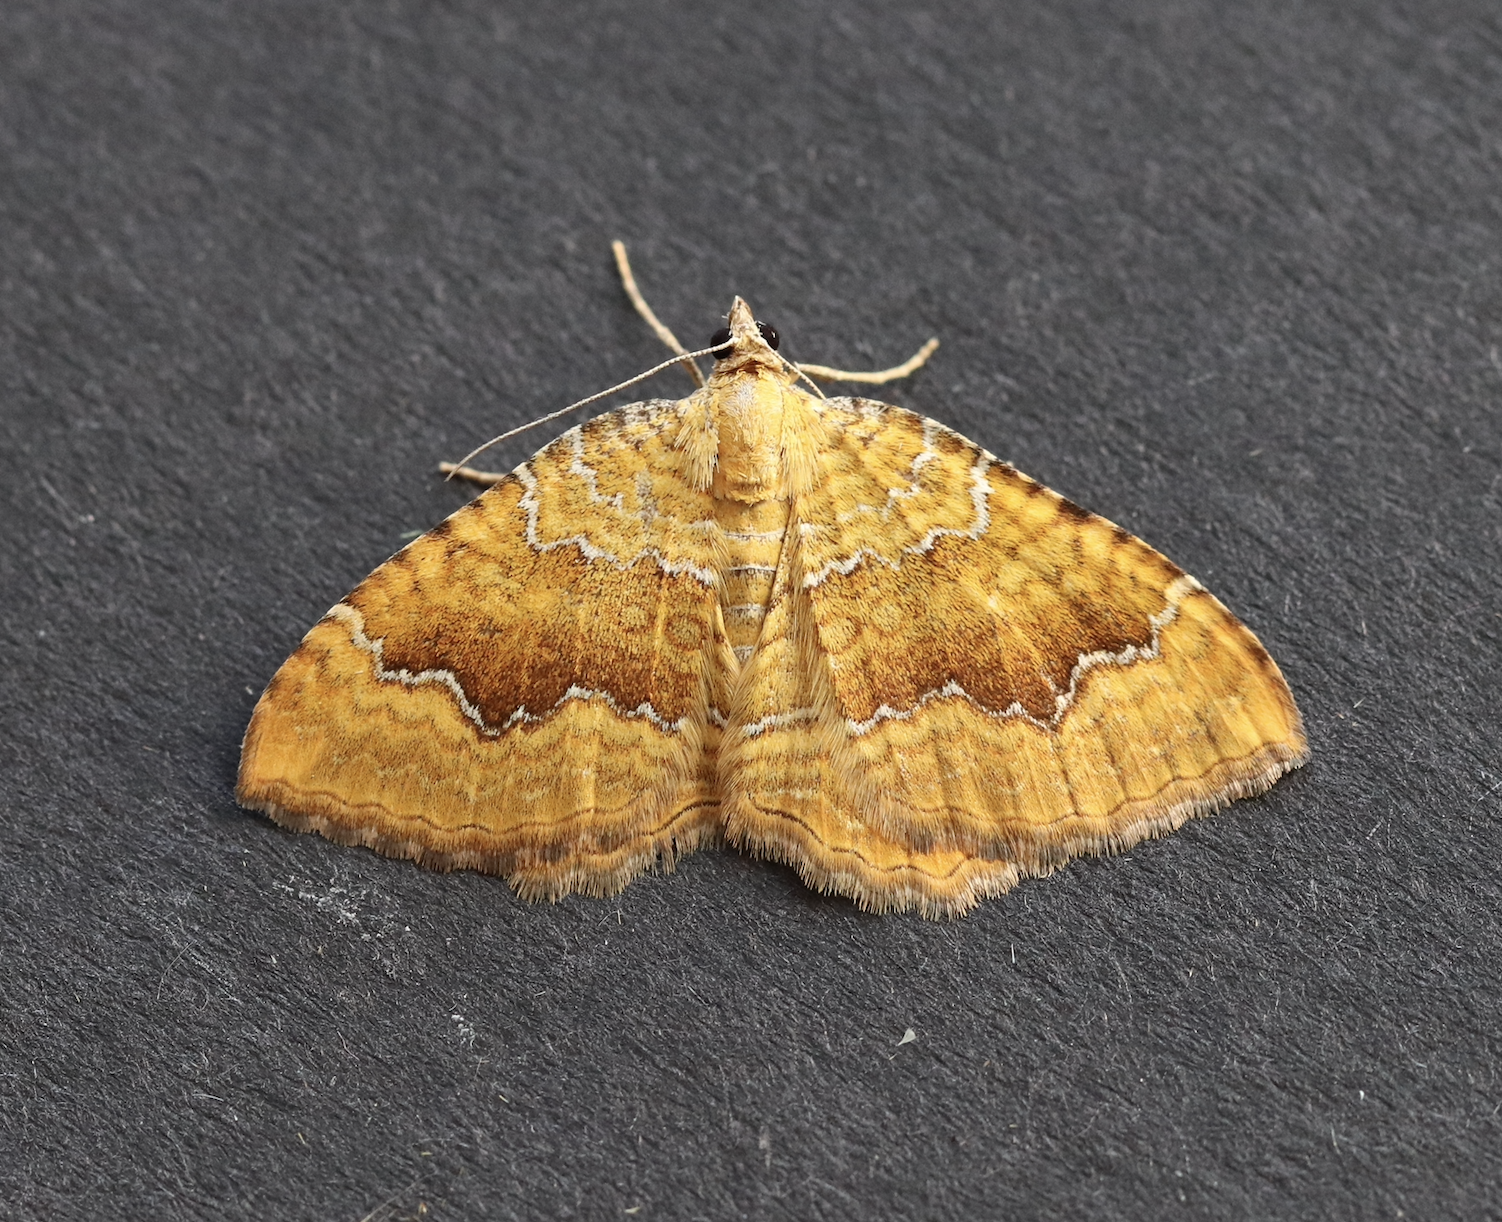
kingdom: Animalia
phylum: Arthropoda
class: Insecta
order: Lepidoptera
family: Geometridae
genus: Camptogramma
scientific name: Camptogramma bilineata
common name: Yellow shell
